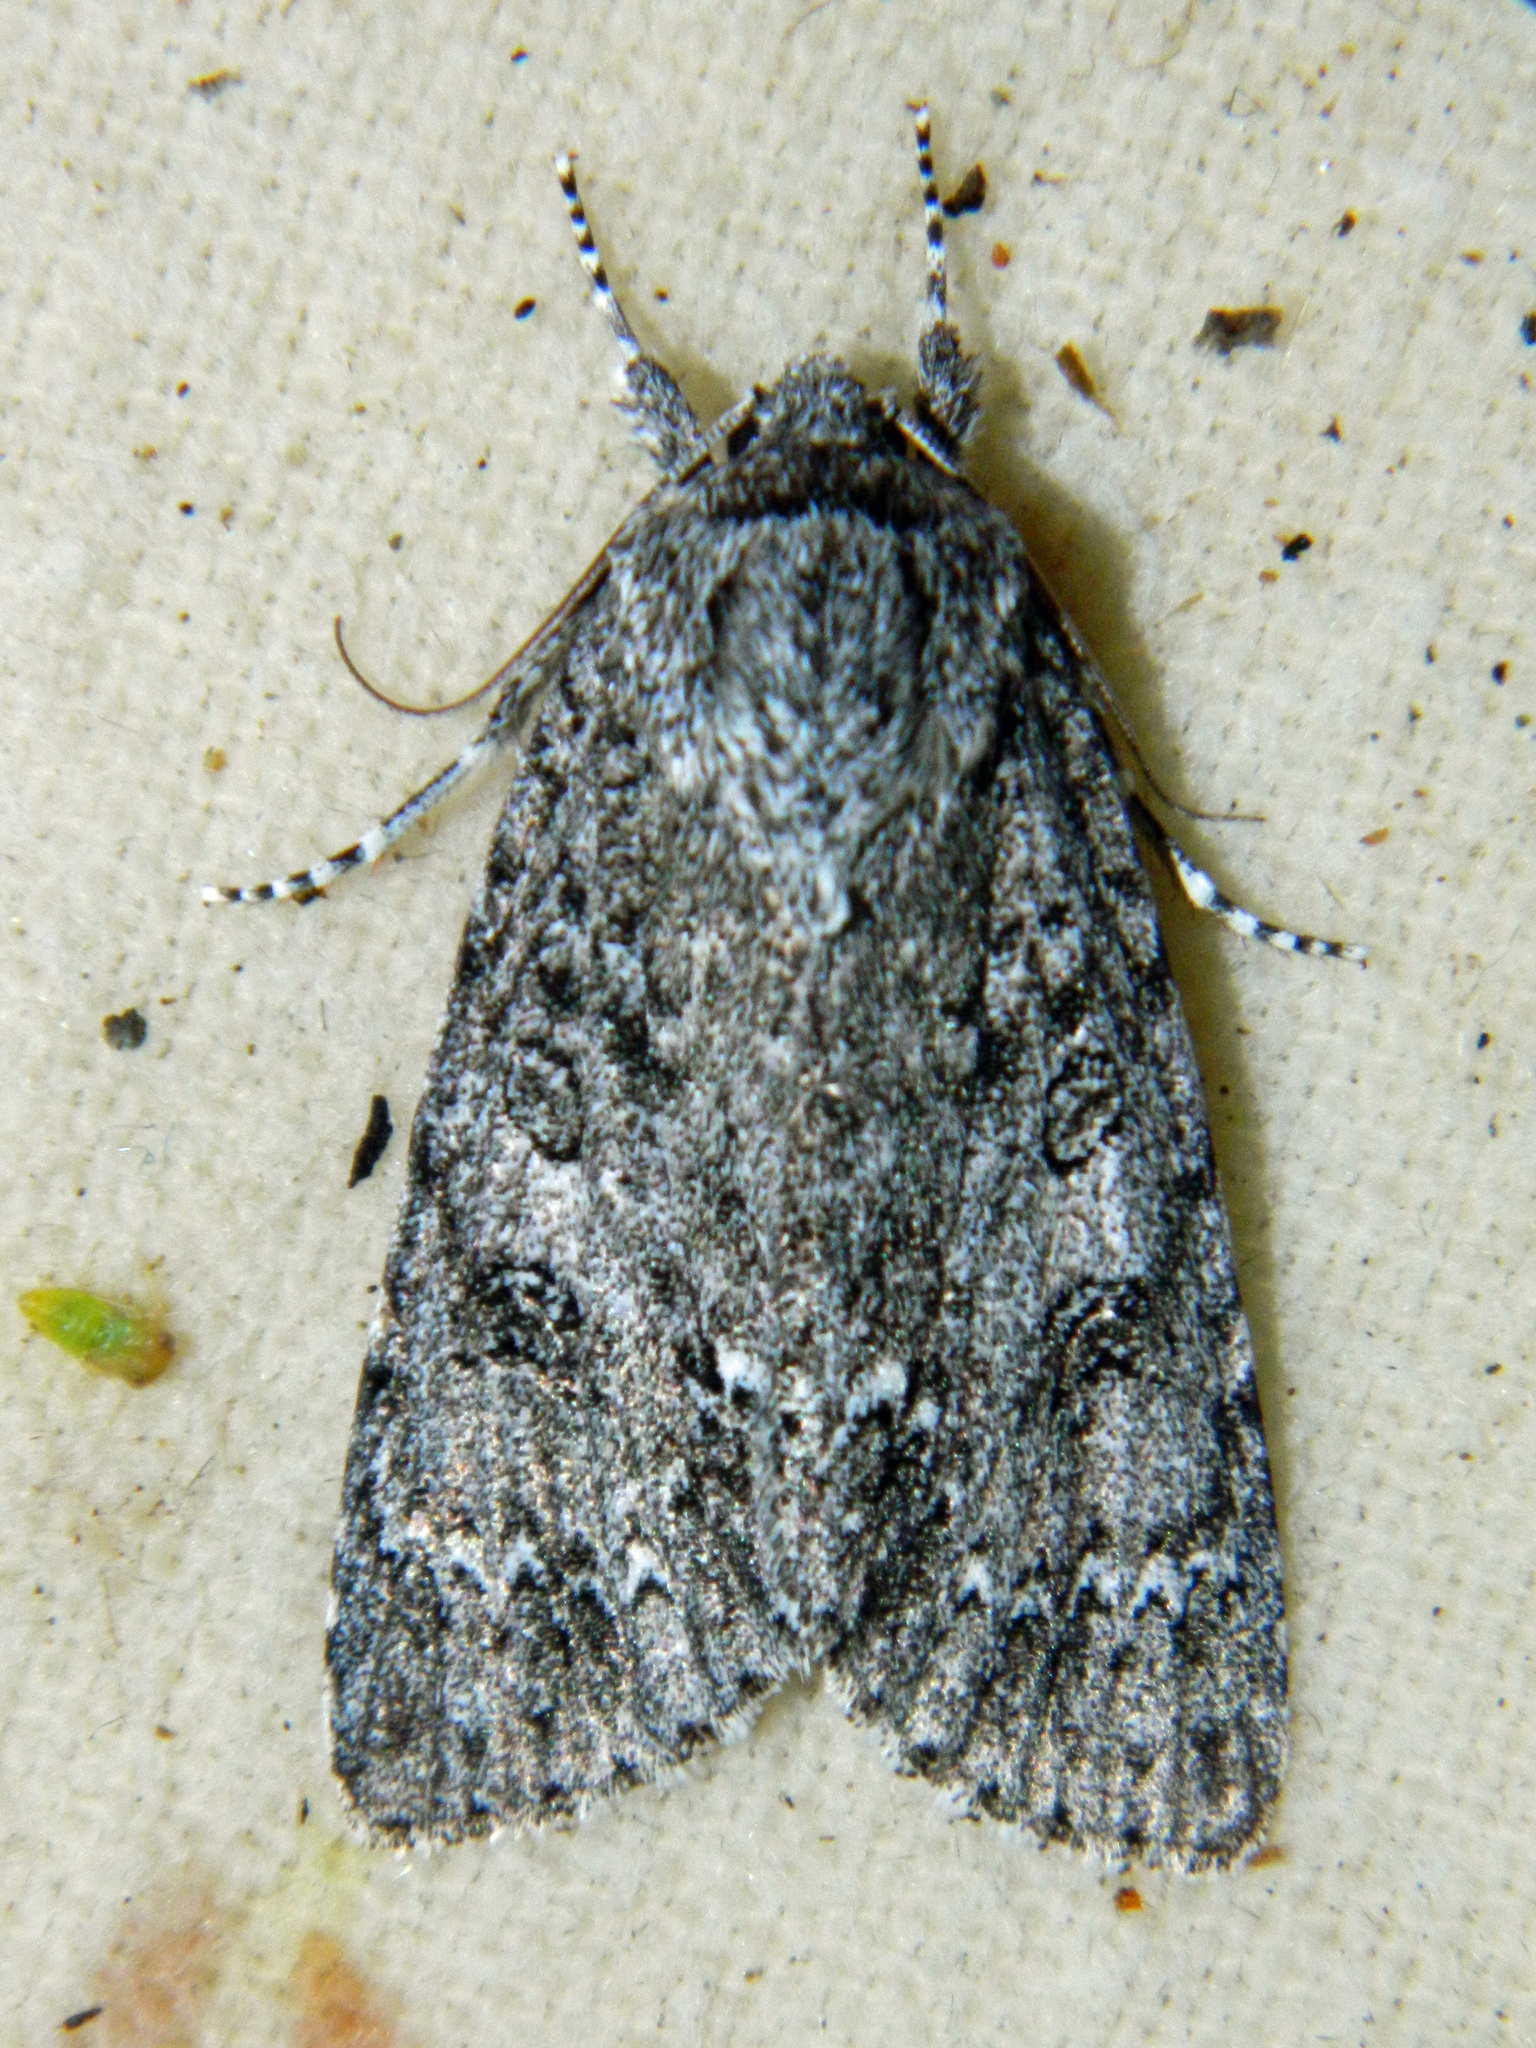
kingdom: Animalia
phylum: Arthropoda
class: Insecta
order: Lepidoptera
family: Noctuidae
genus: Acronicta
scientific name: Acronicta impleta
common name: Powdered dagger
